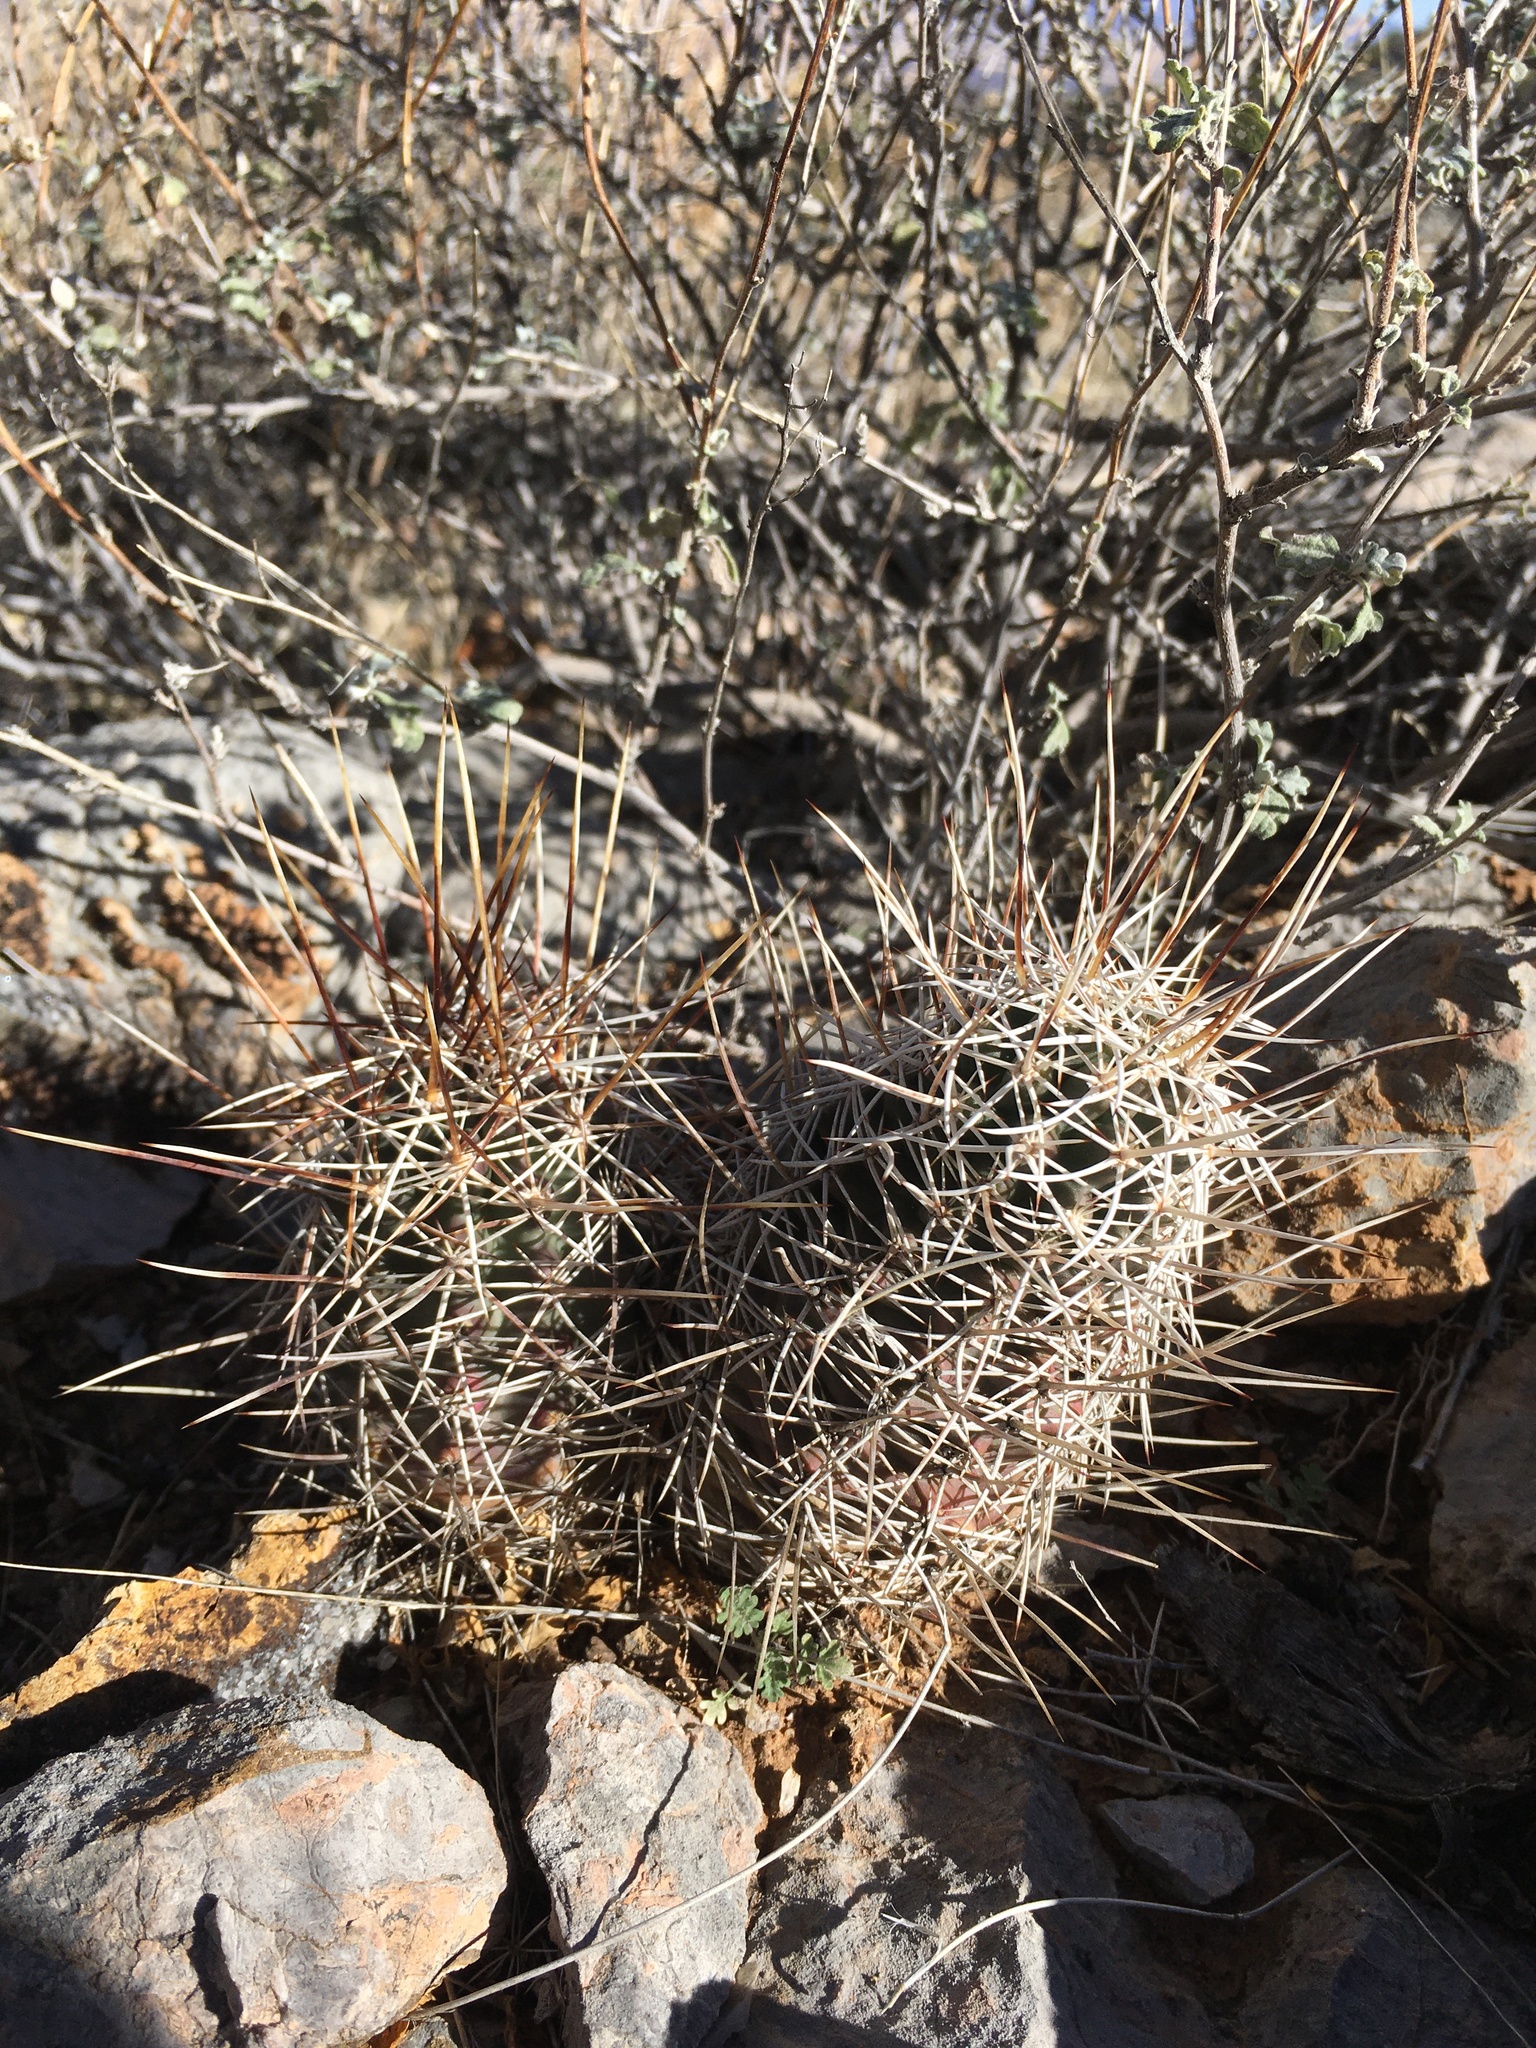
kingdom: Plantae
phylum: Tracheophyta
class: Magnoliopsida
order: Caryophyllales
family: Cactaceae
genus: Echinocereus
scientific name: Echinocereus fendleri
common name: Fendler's hedgehog cactus
